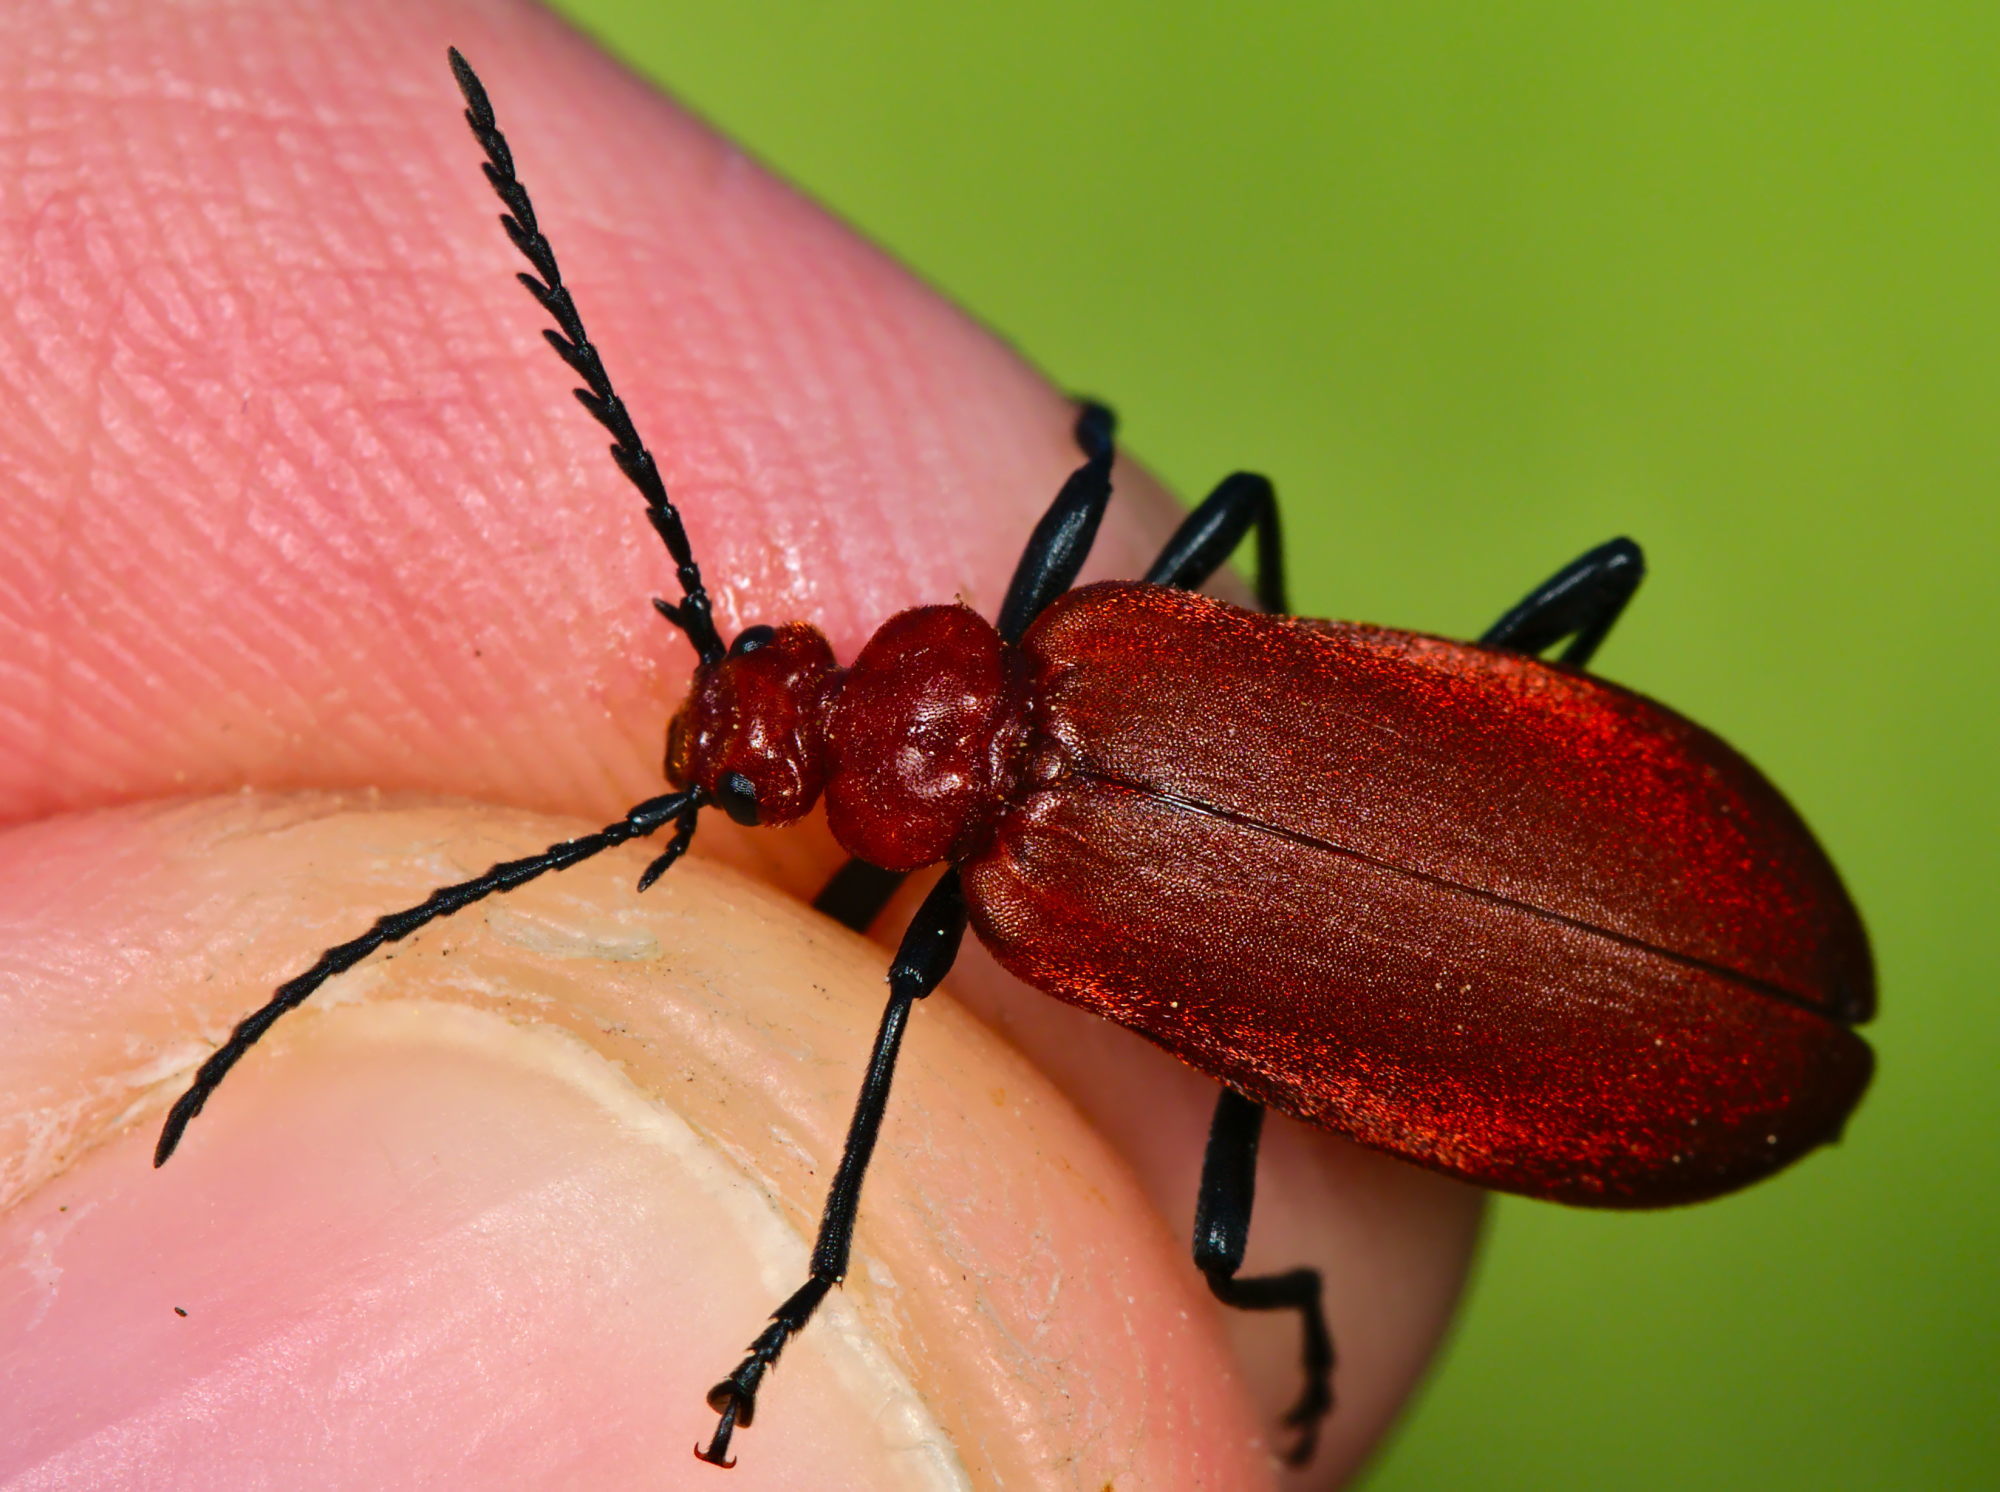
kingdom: Animalia
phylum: Arthropoda
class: Insecta
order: Coleoptera
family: Pyrochroidae
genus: Pyrochroa
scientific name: Pyrochroa serraticornis
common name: Red-headed cardinal beetle
